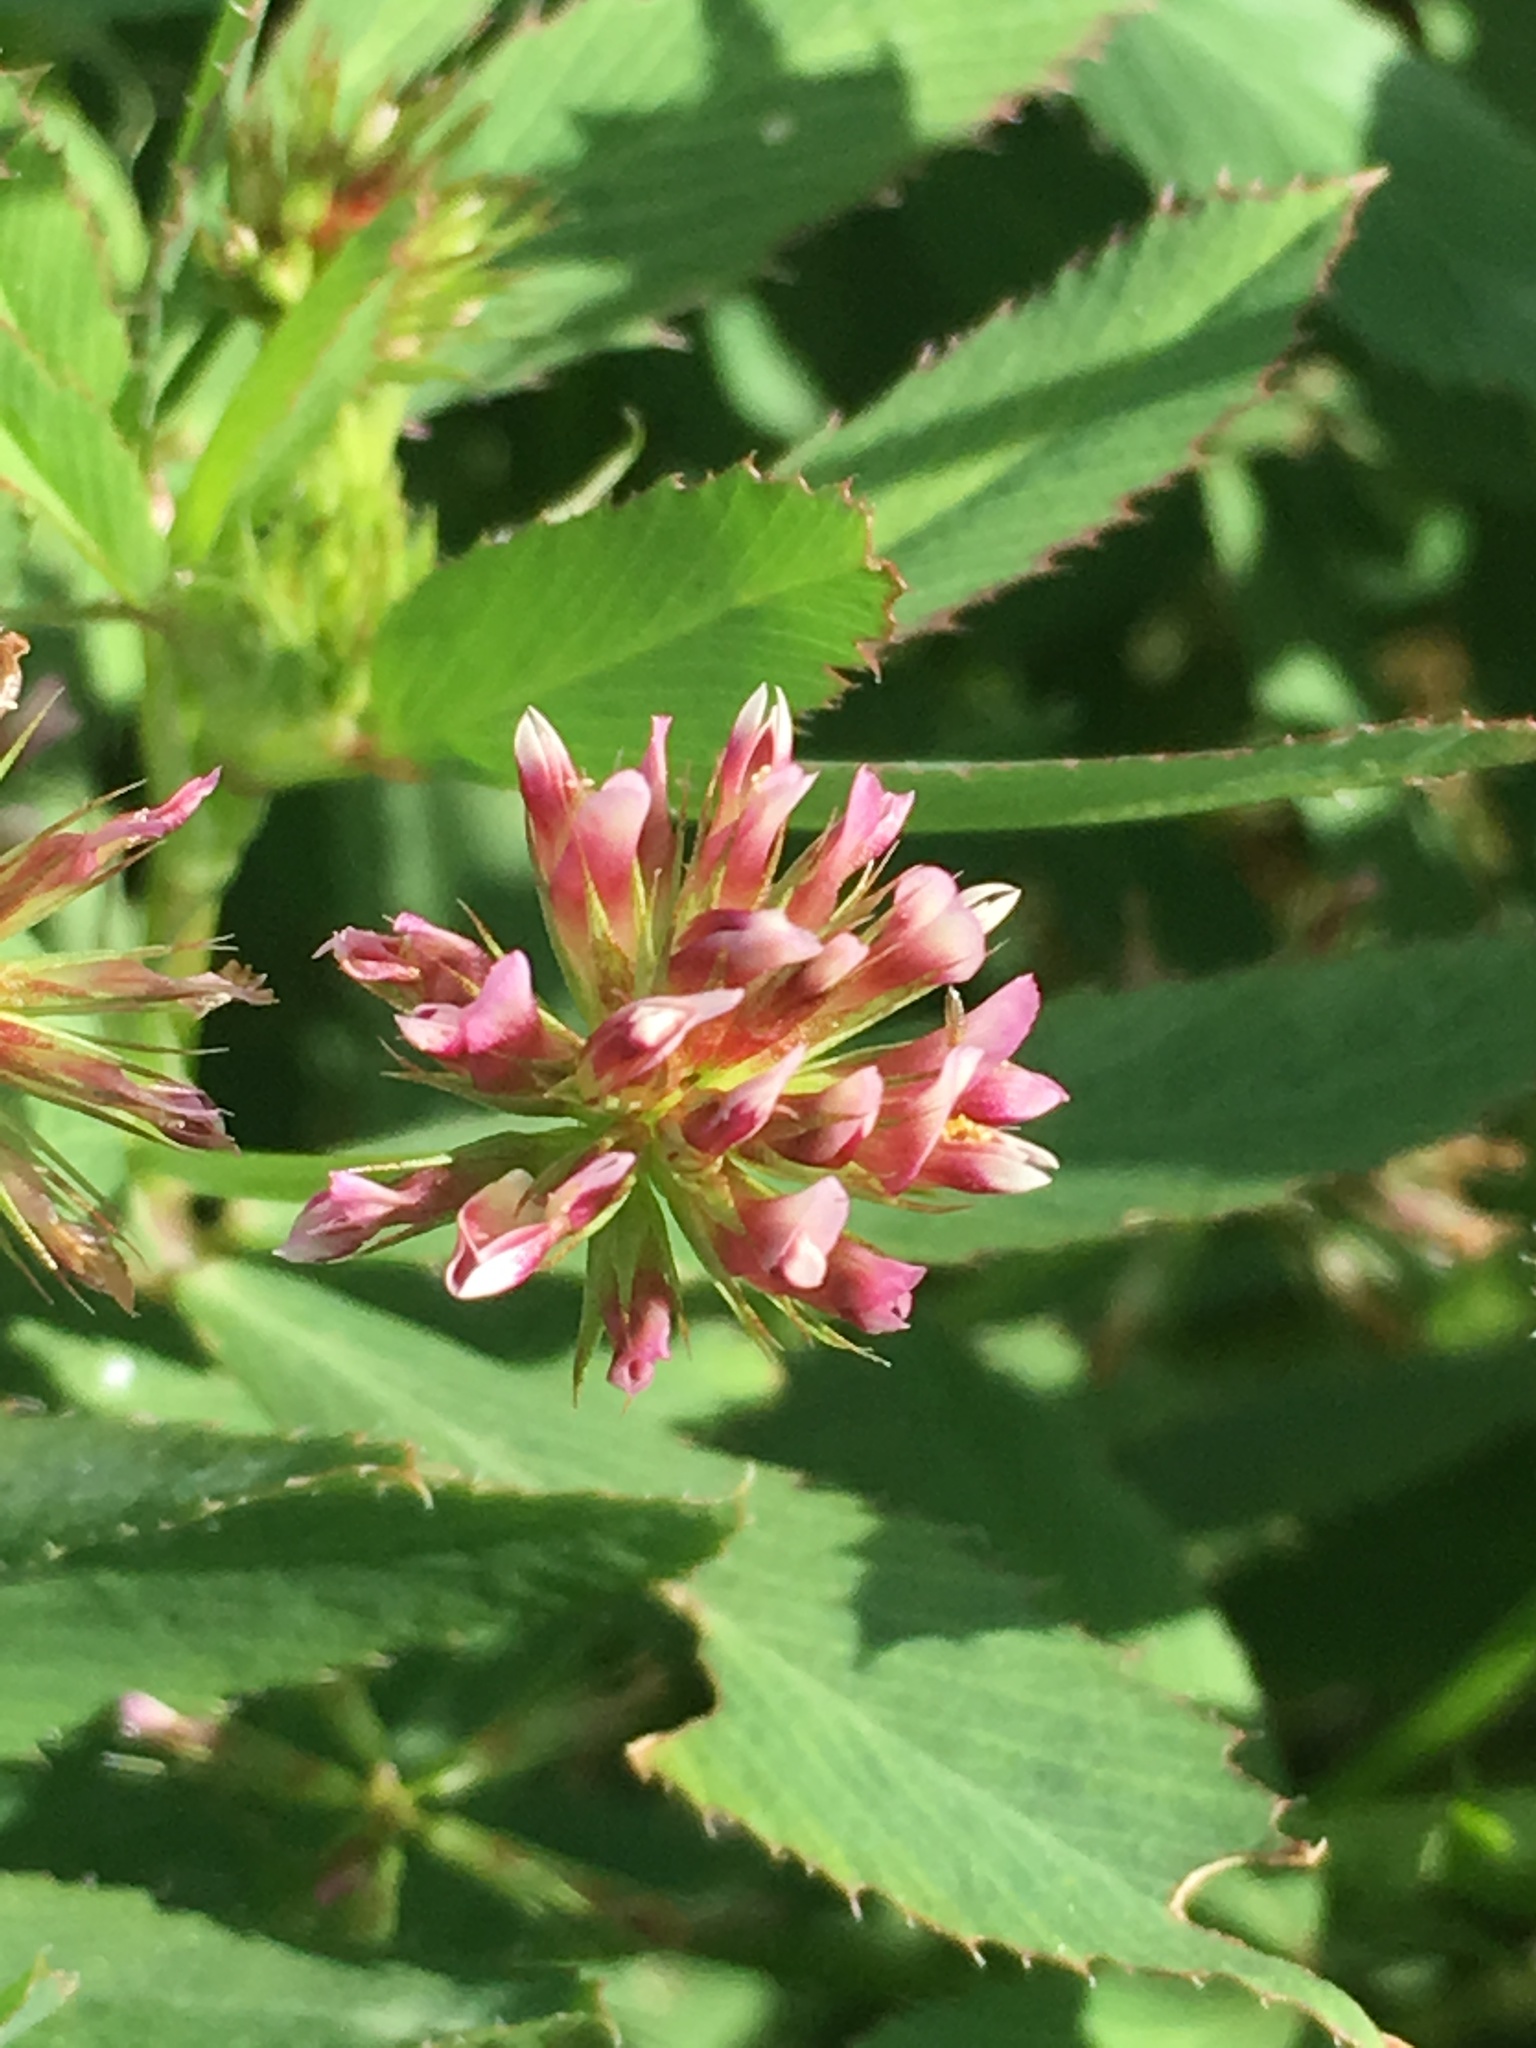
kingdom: Plantae
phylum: Tracheophyta
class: Magnoliopsida
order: Fabales
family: Fabaceae
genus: Trifolium
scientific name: Trifolium palmeri
